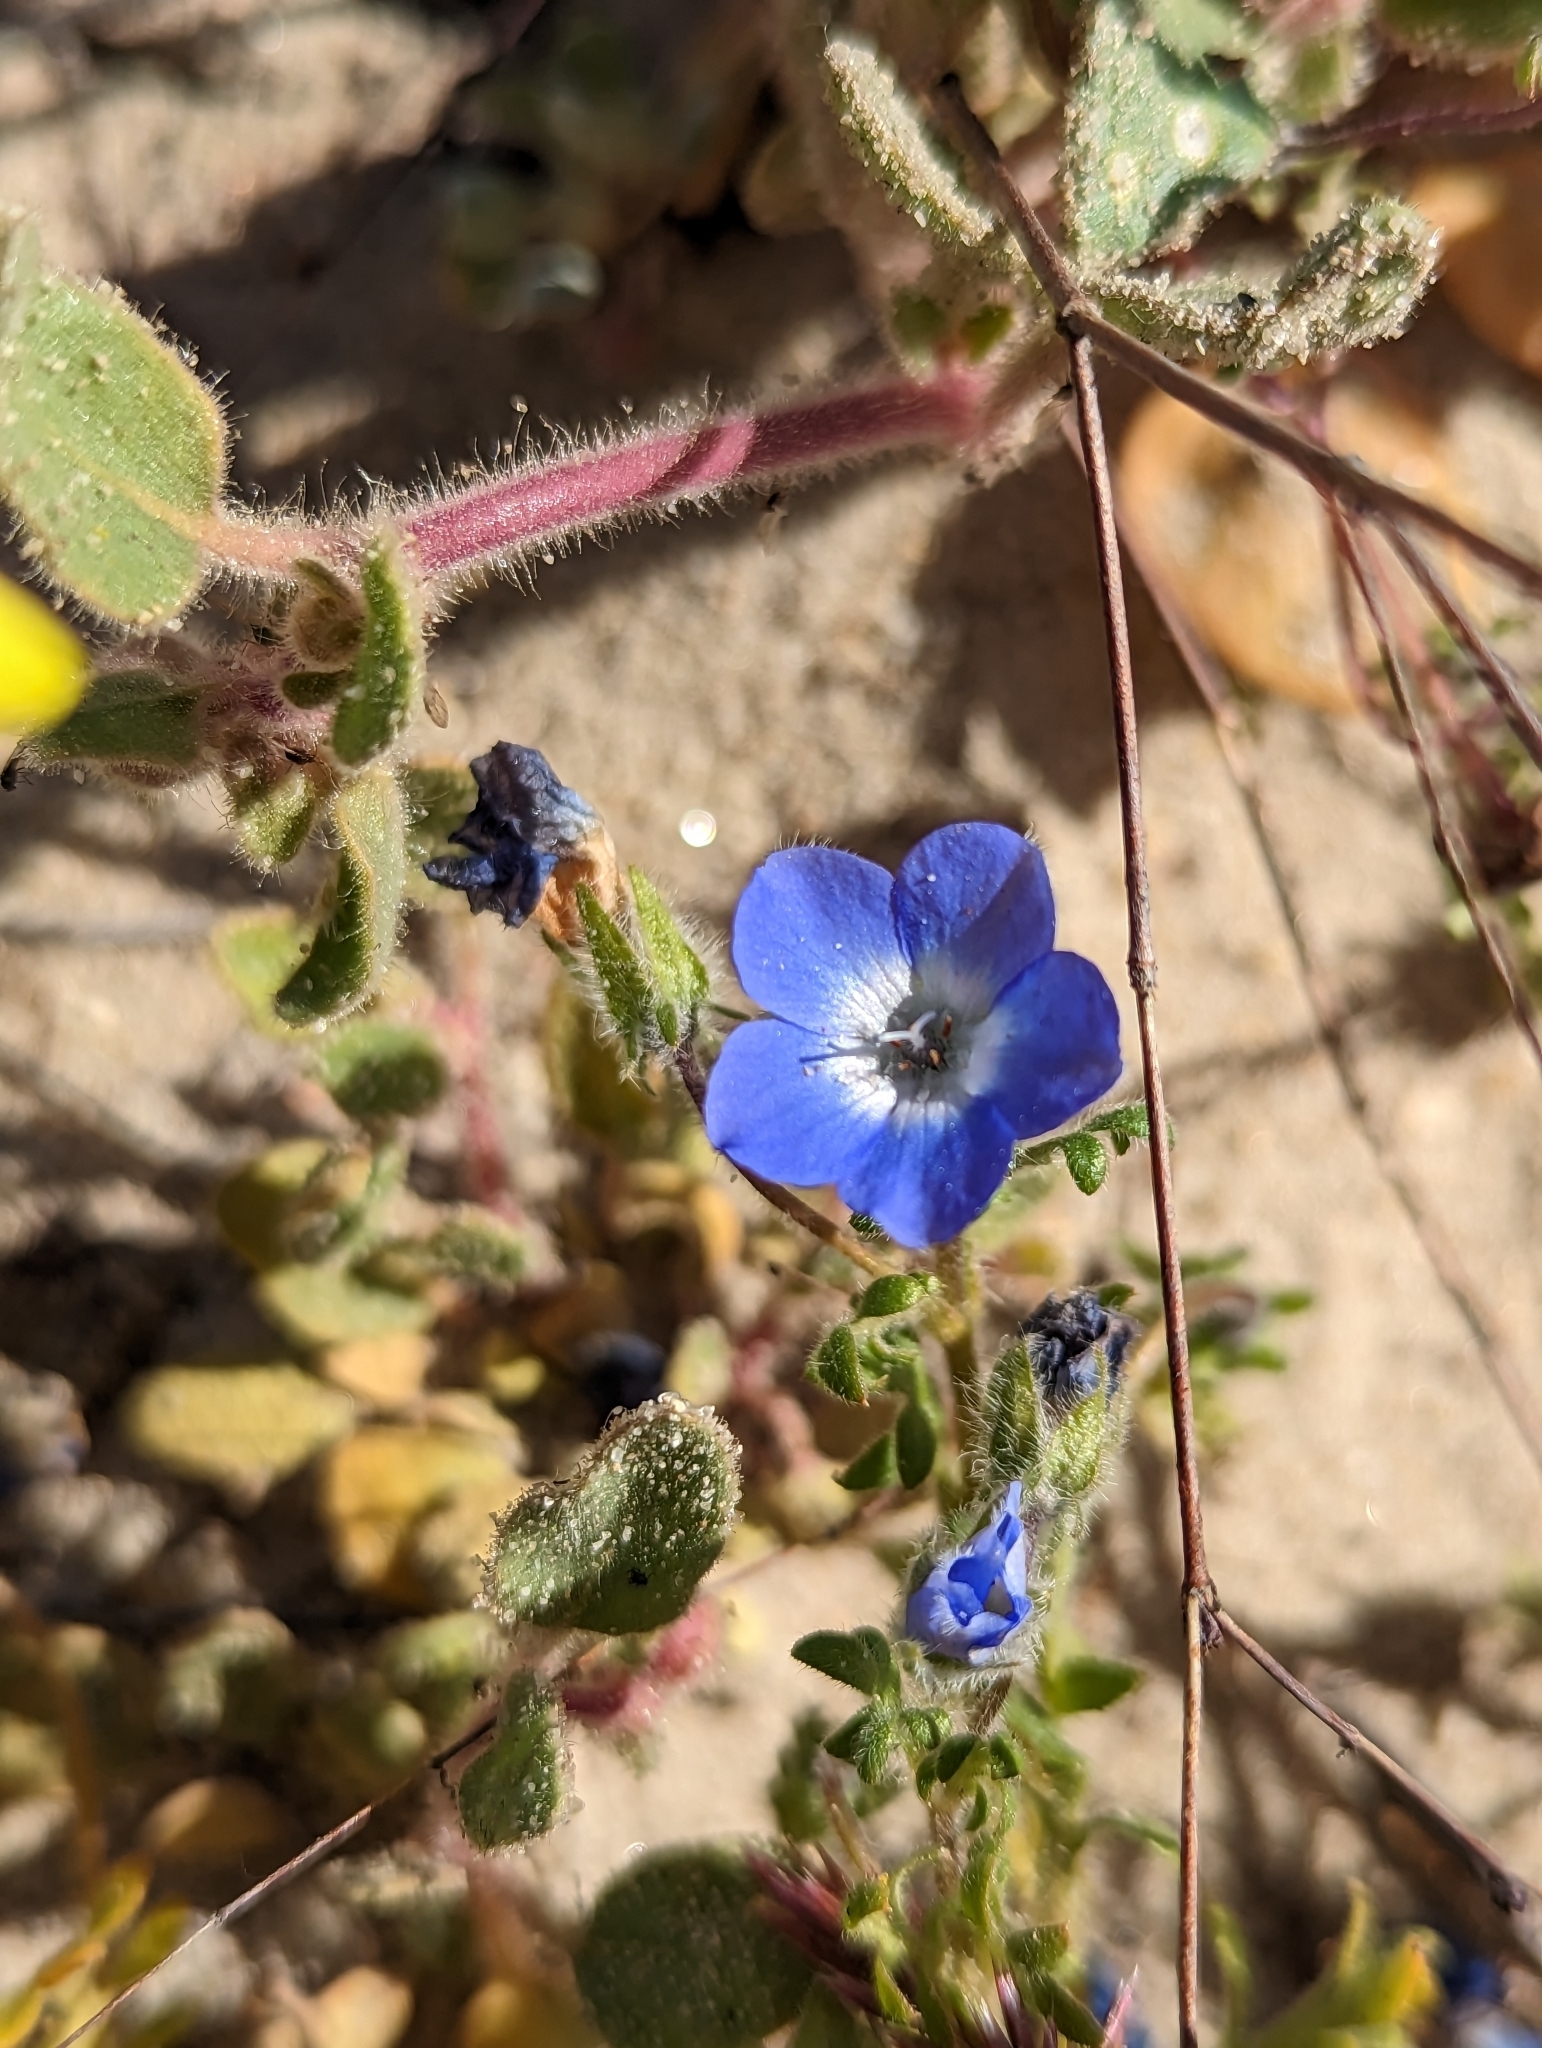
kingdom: Plantae
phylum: Tracheophyta
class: Magnoliopsida
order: Boraginales
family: Hydrophyllaceae
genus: Nemophila
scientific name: Nemophila menziesii
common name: Baby's-blue-eyes
